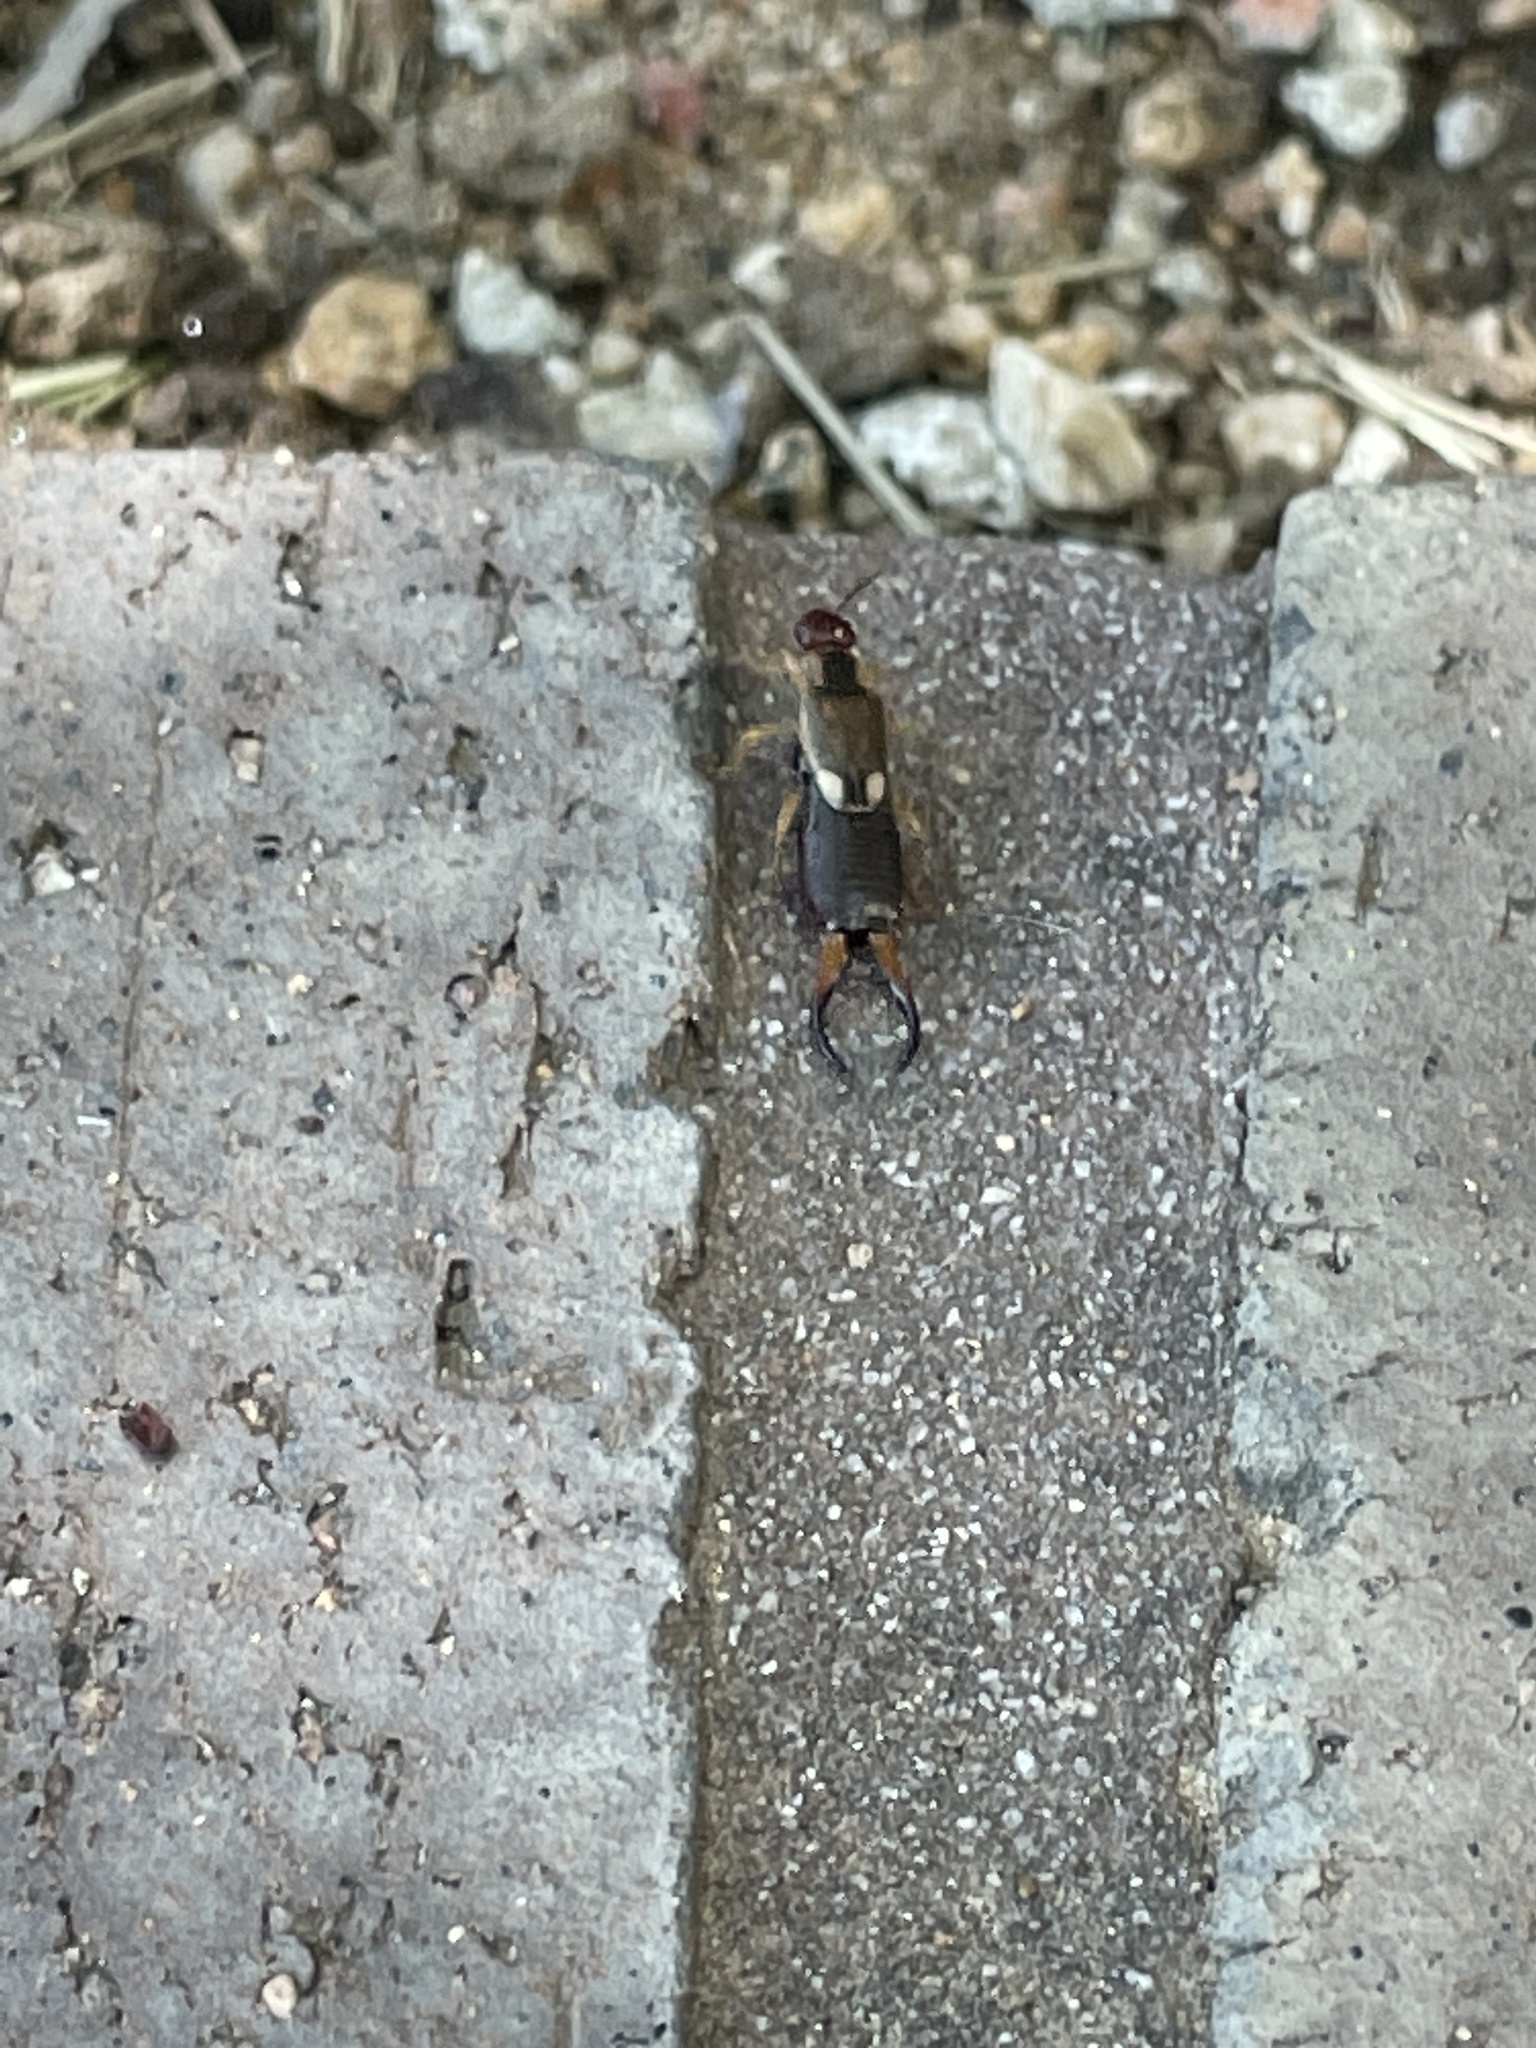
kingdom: Animalia
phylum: Arthropoda
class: Insecta
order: Dermaptera
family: Forficulidae
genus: Forficula
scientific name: Forficula
